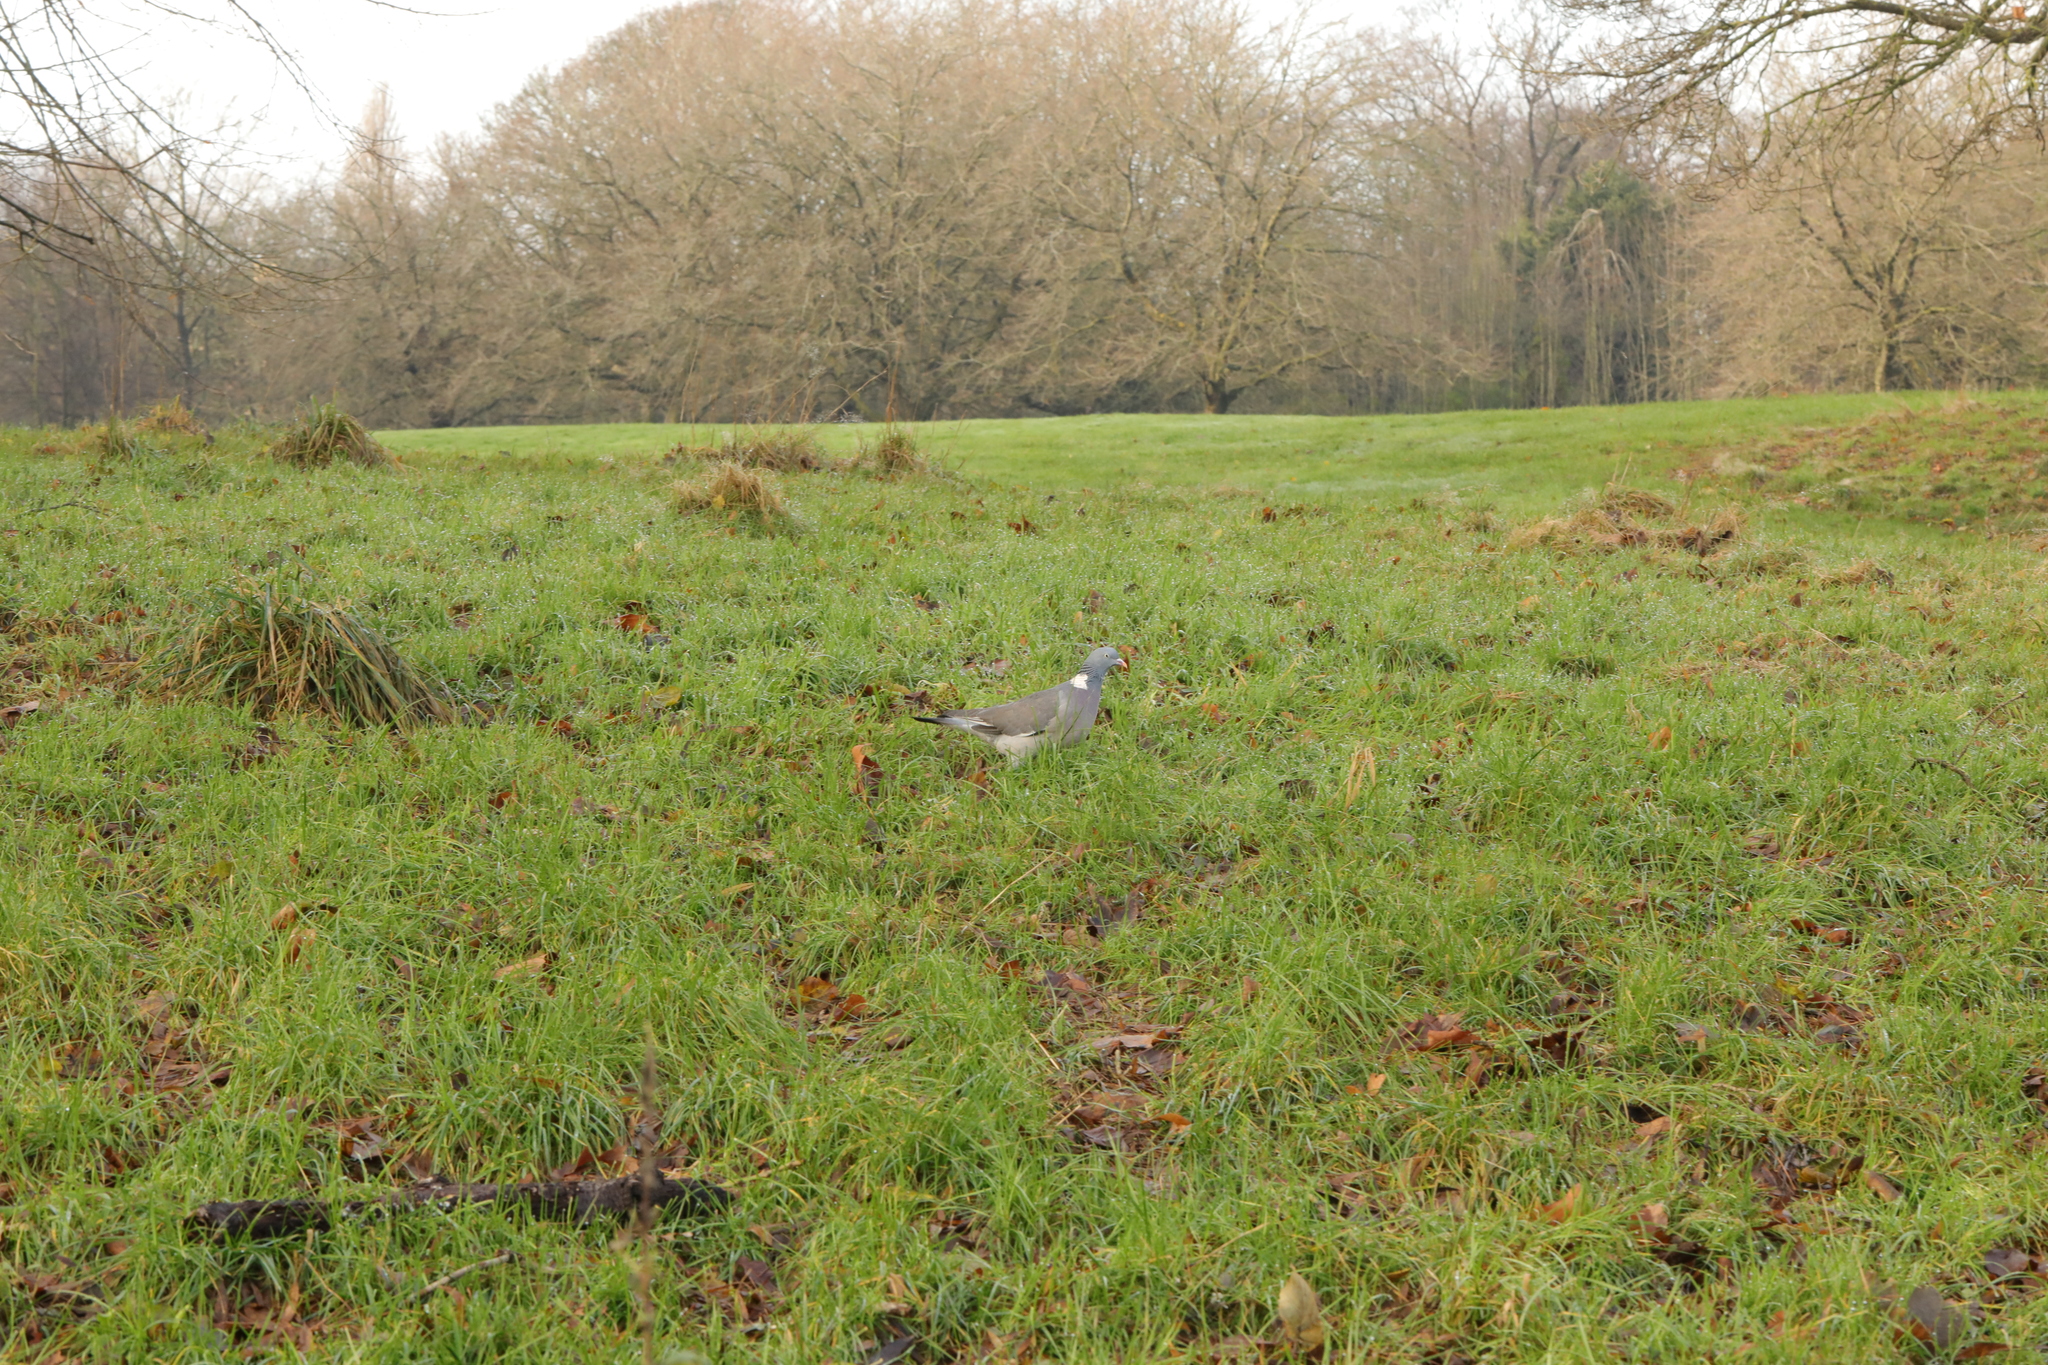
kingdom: Animalia
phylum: Chordata
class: Aves
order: Columbiformes
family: Columbidae
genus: Columba
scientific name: Columba palumbus
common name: Common wood pigeon
